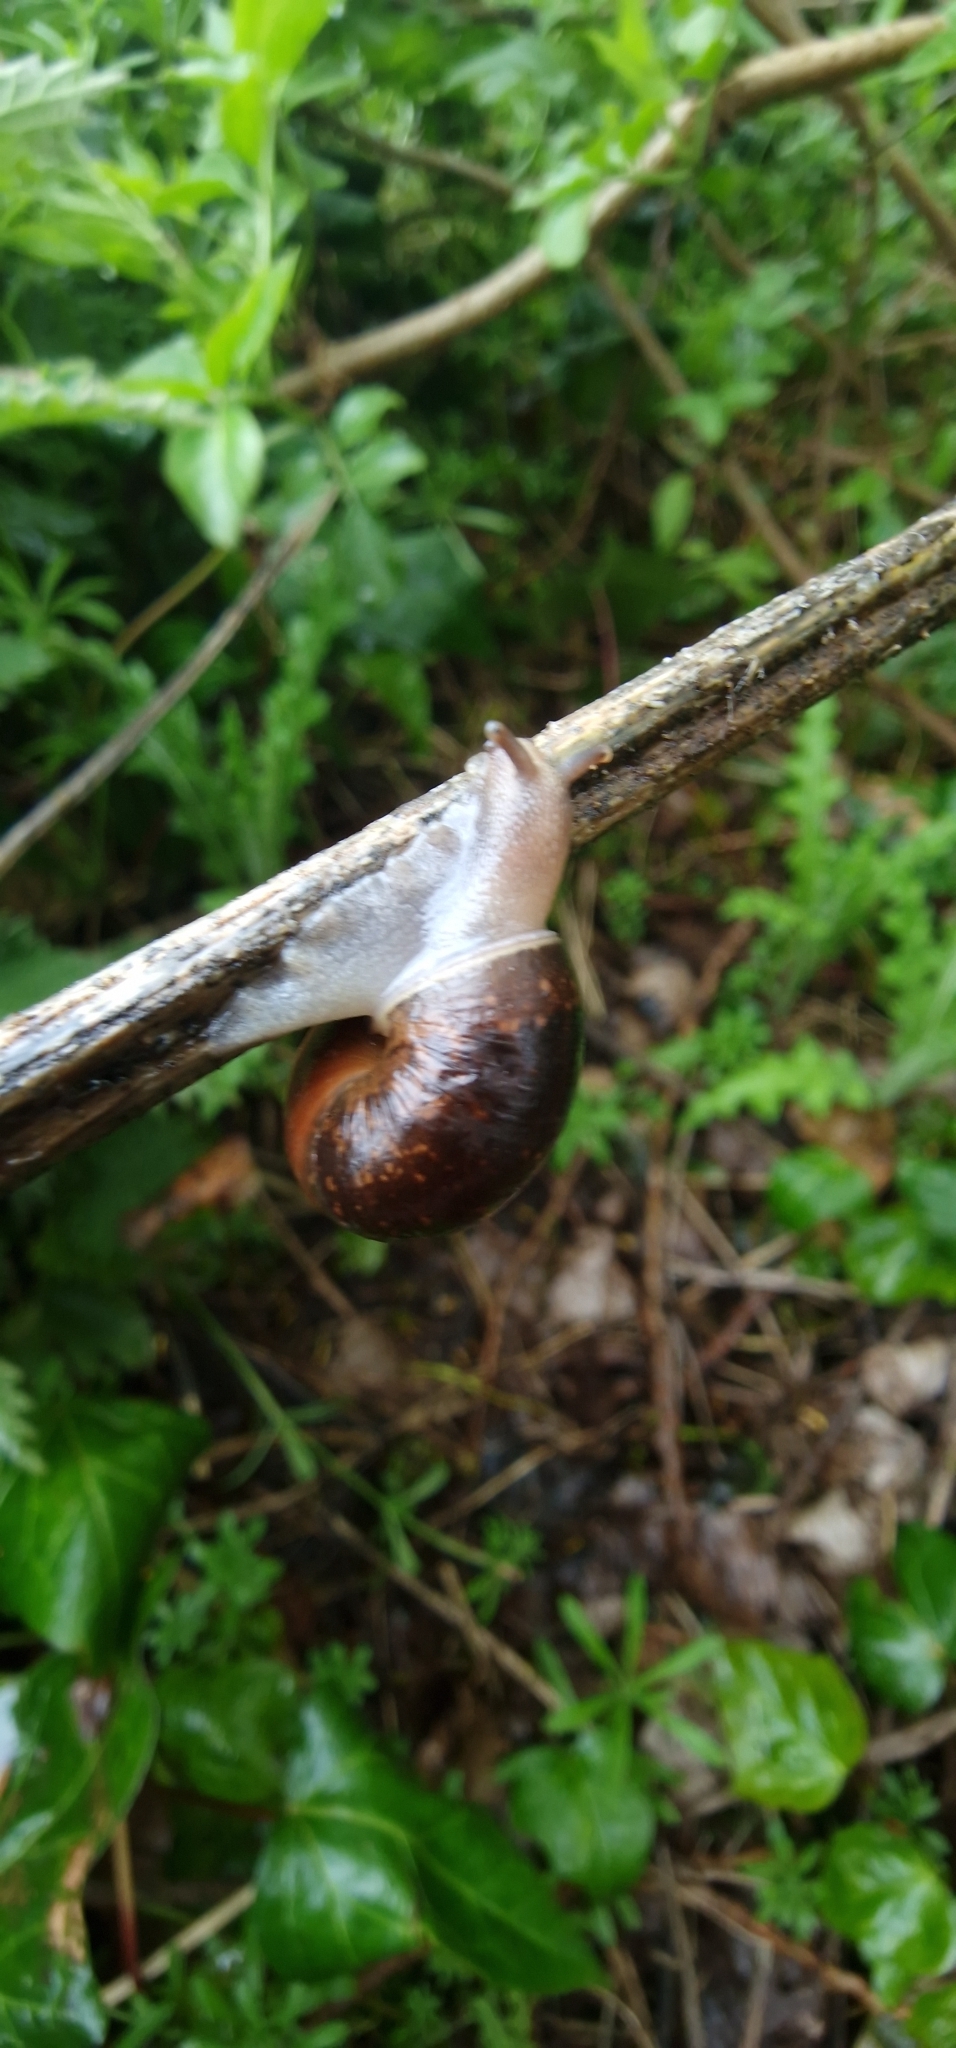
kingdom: Animalia
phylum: Mollusca
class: Gastropoda
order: Stylommatophora
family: Hygromiidae
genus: Monacha
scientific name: Monacha cantiana
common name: Kentish snail
